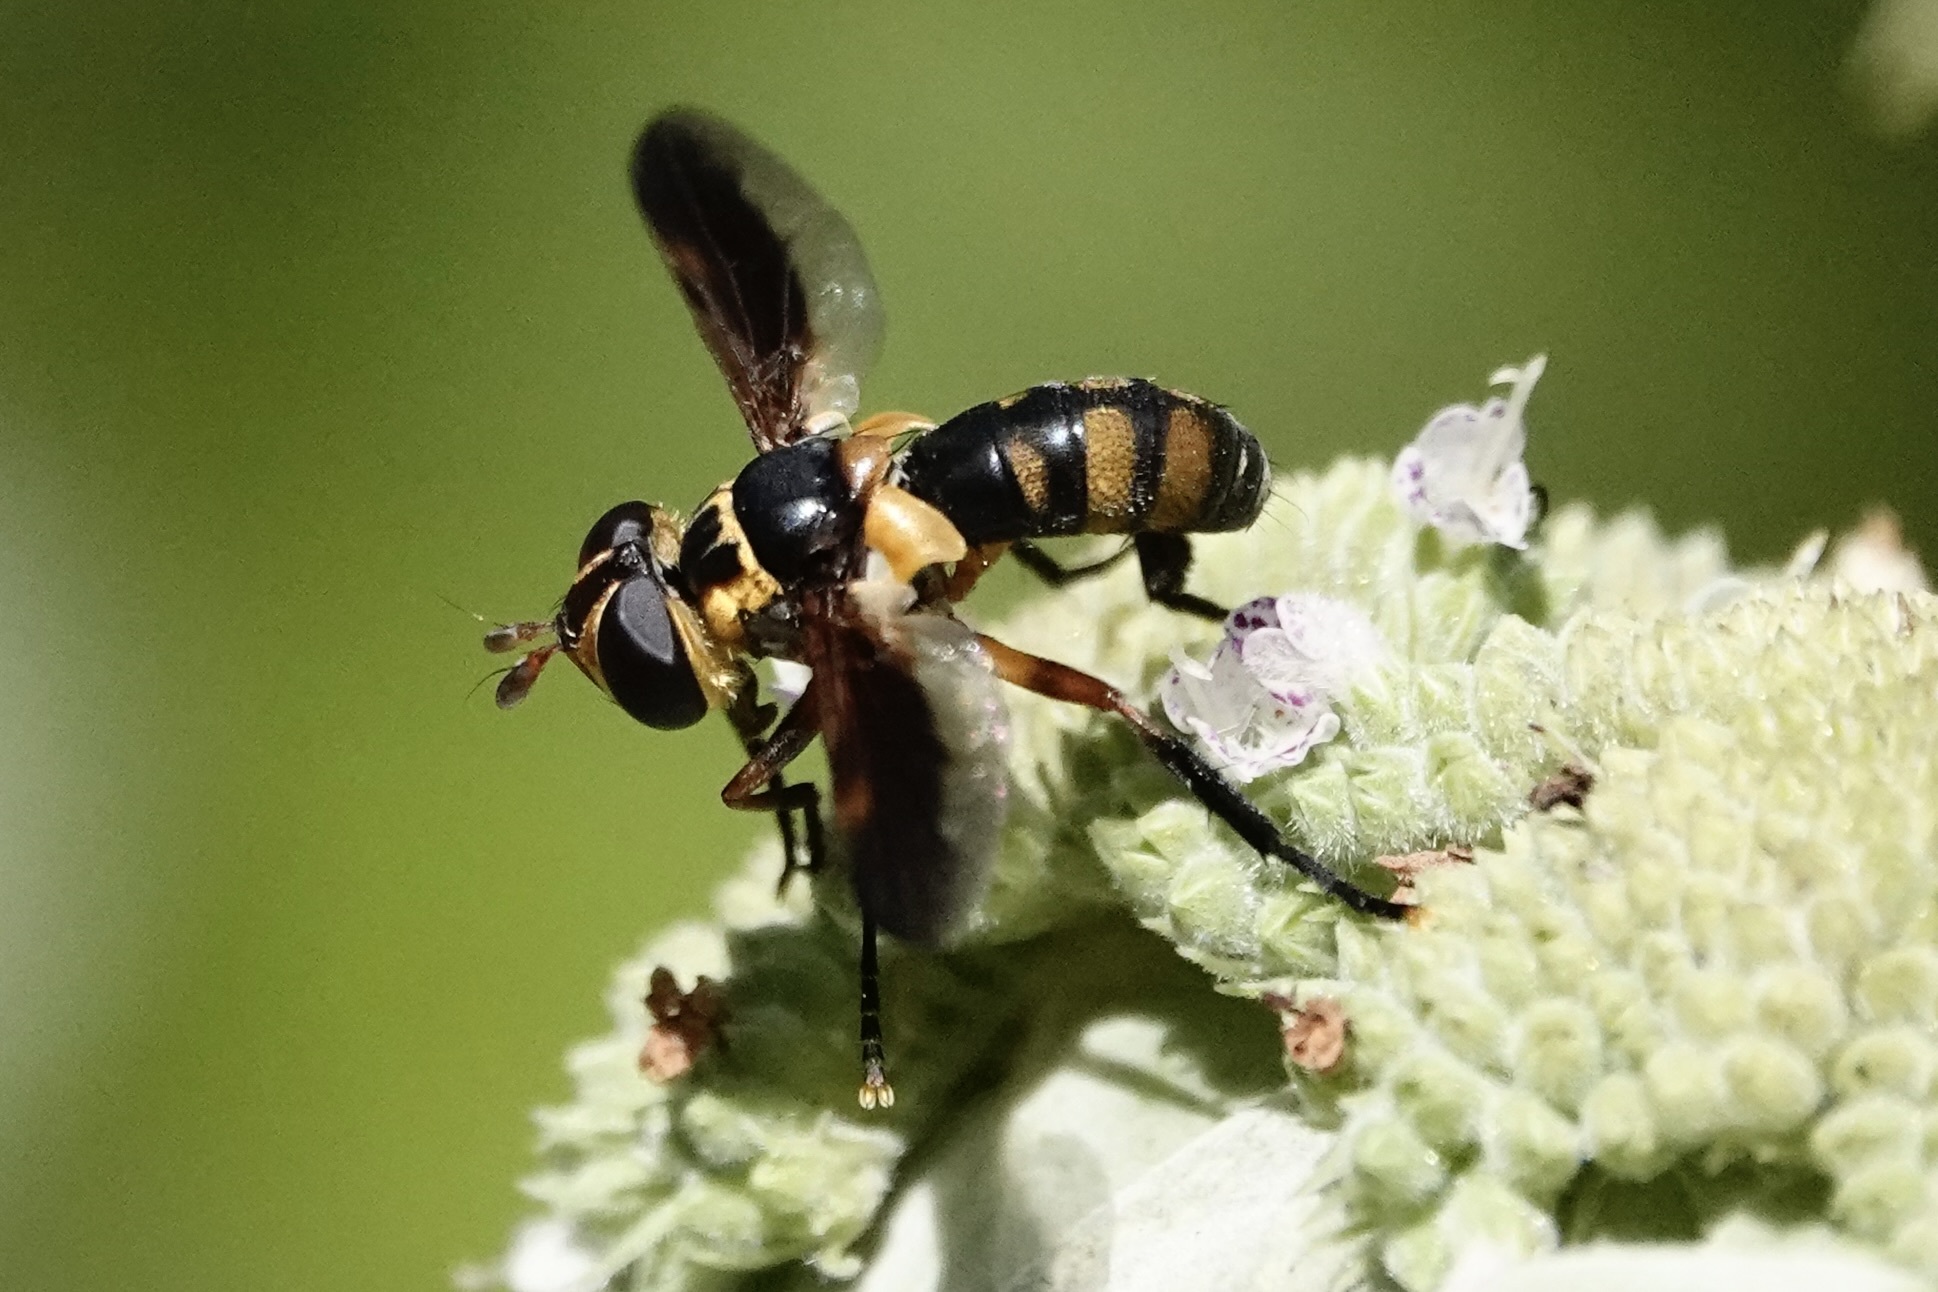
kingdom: Animalia
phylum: Arthropoda
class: Insecta
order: Diptera
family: Tachinidae
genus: Trichopoda
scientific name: Trichopoda plumipes
